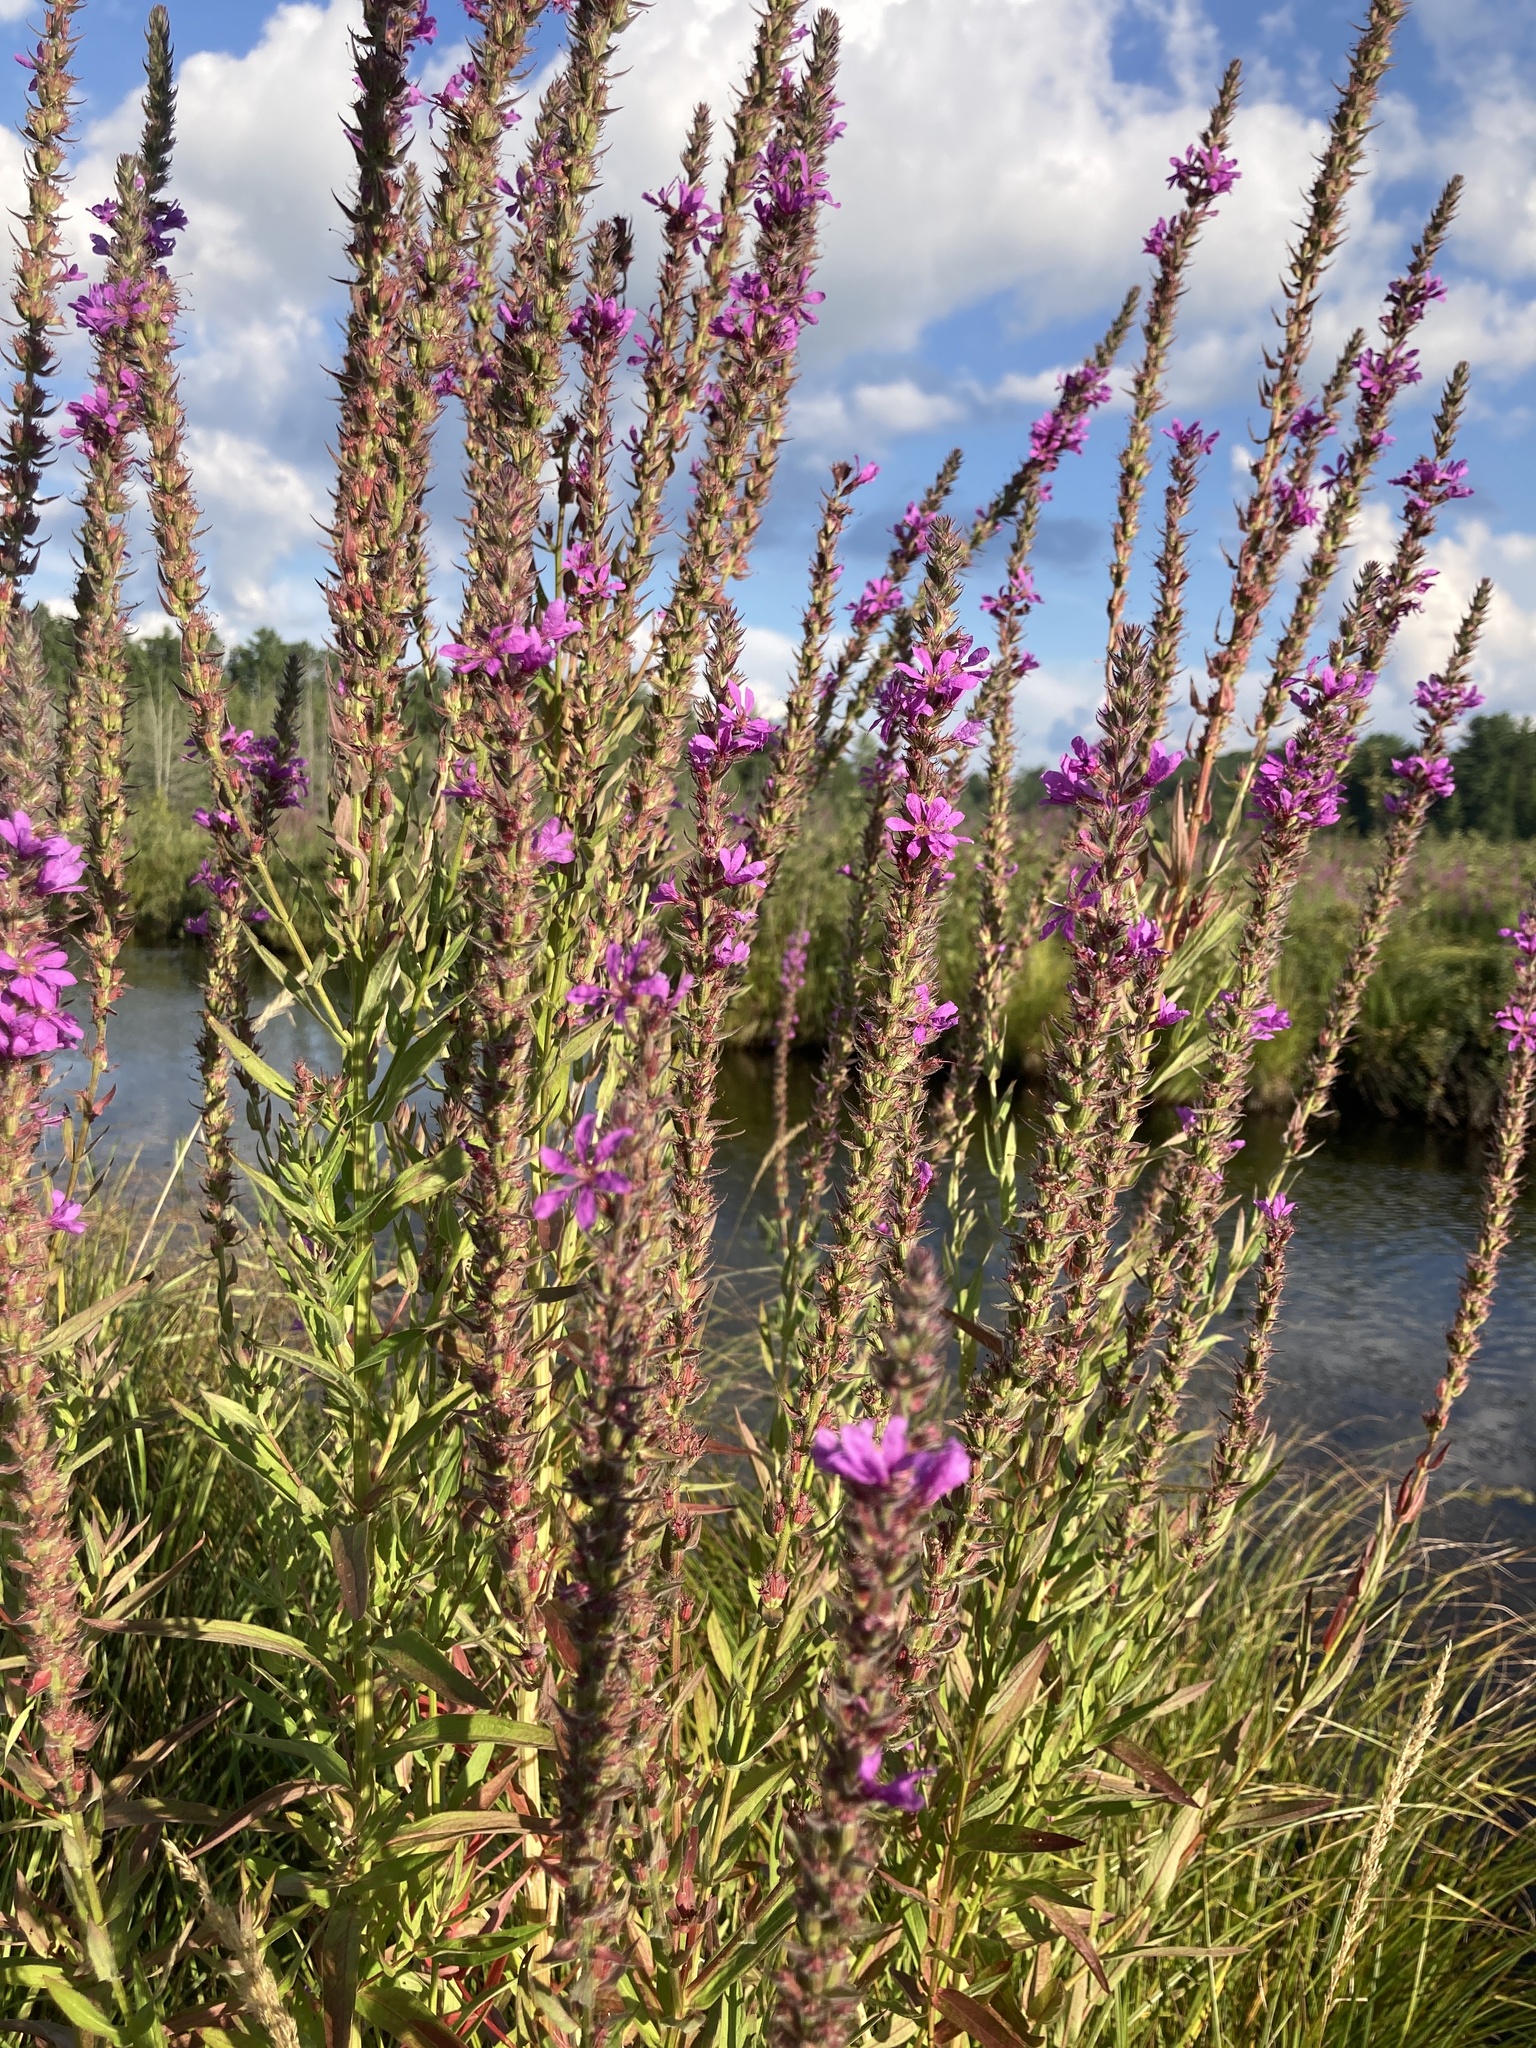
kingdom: Plantae
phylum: Tracheophyta
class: Magnoliopsida
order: Myrtales
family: Lythraceae
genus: Lythrum
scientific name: Lythrum salicaria
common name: Purple loosestrife
